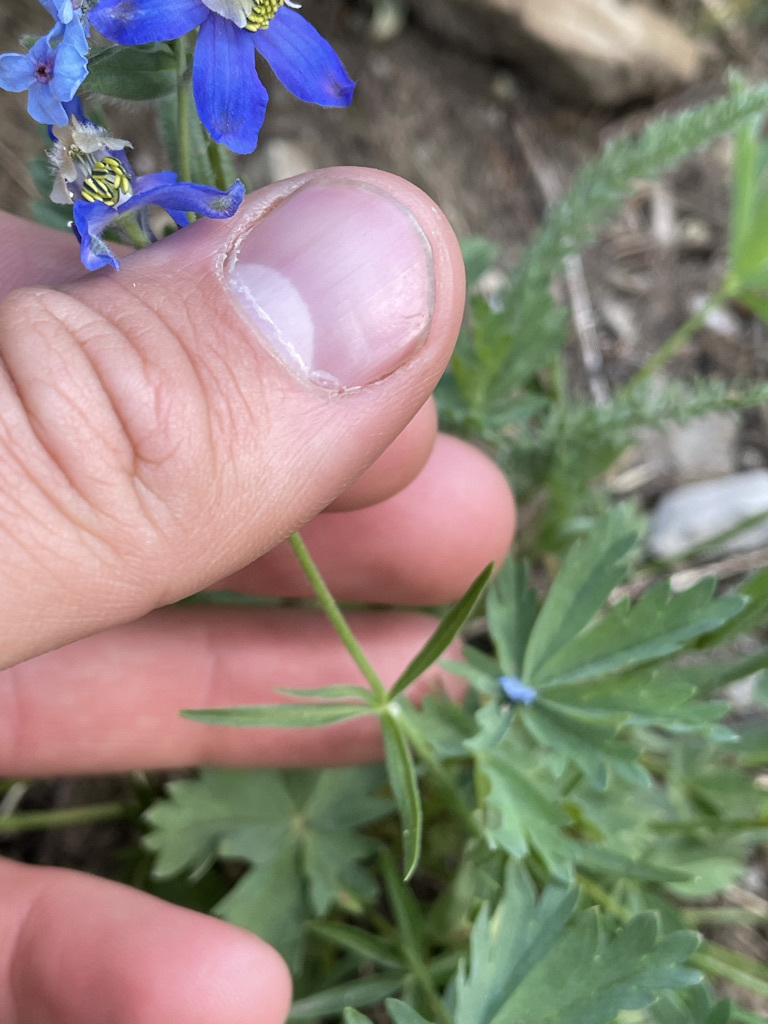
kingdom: Plantae
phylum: Tracheophyta
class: Magnoliopsida
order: Ranunculales
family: Ranunculaceae
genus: Delphinium
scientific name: Delphinium sutherlandii
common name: Sutherland's larkspur
